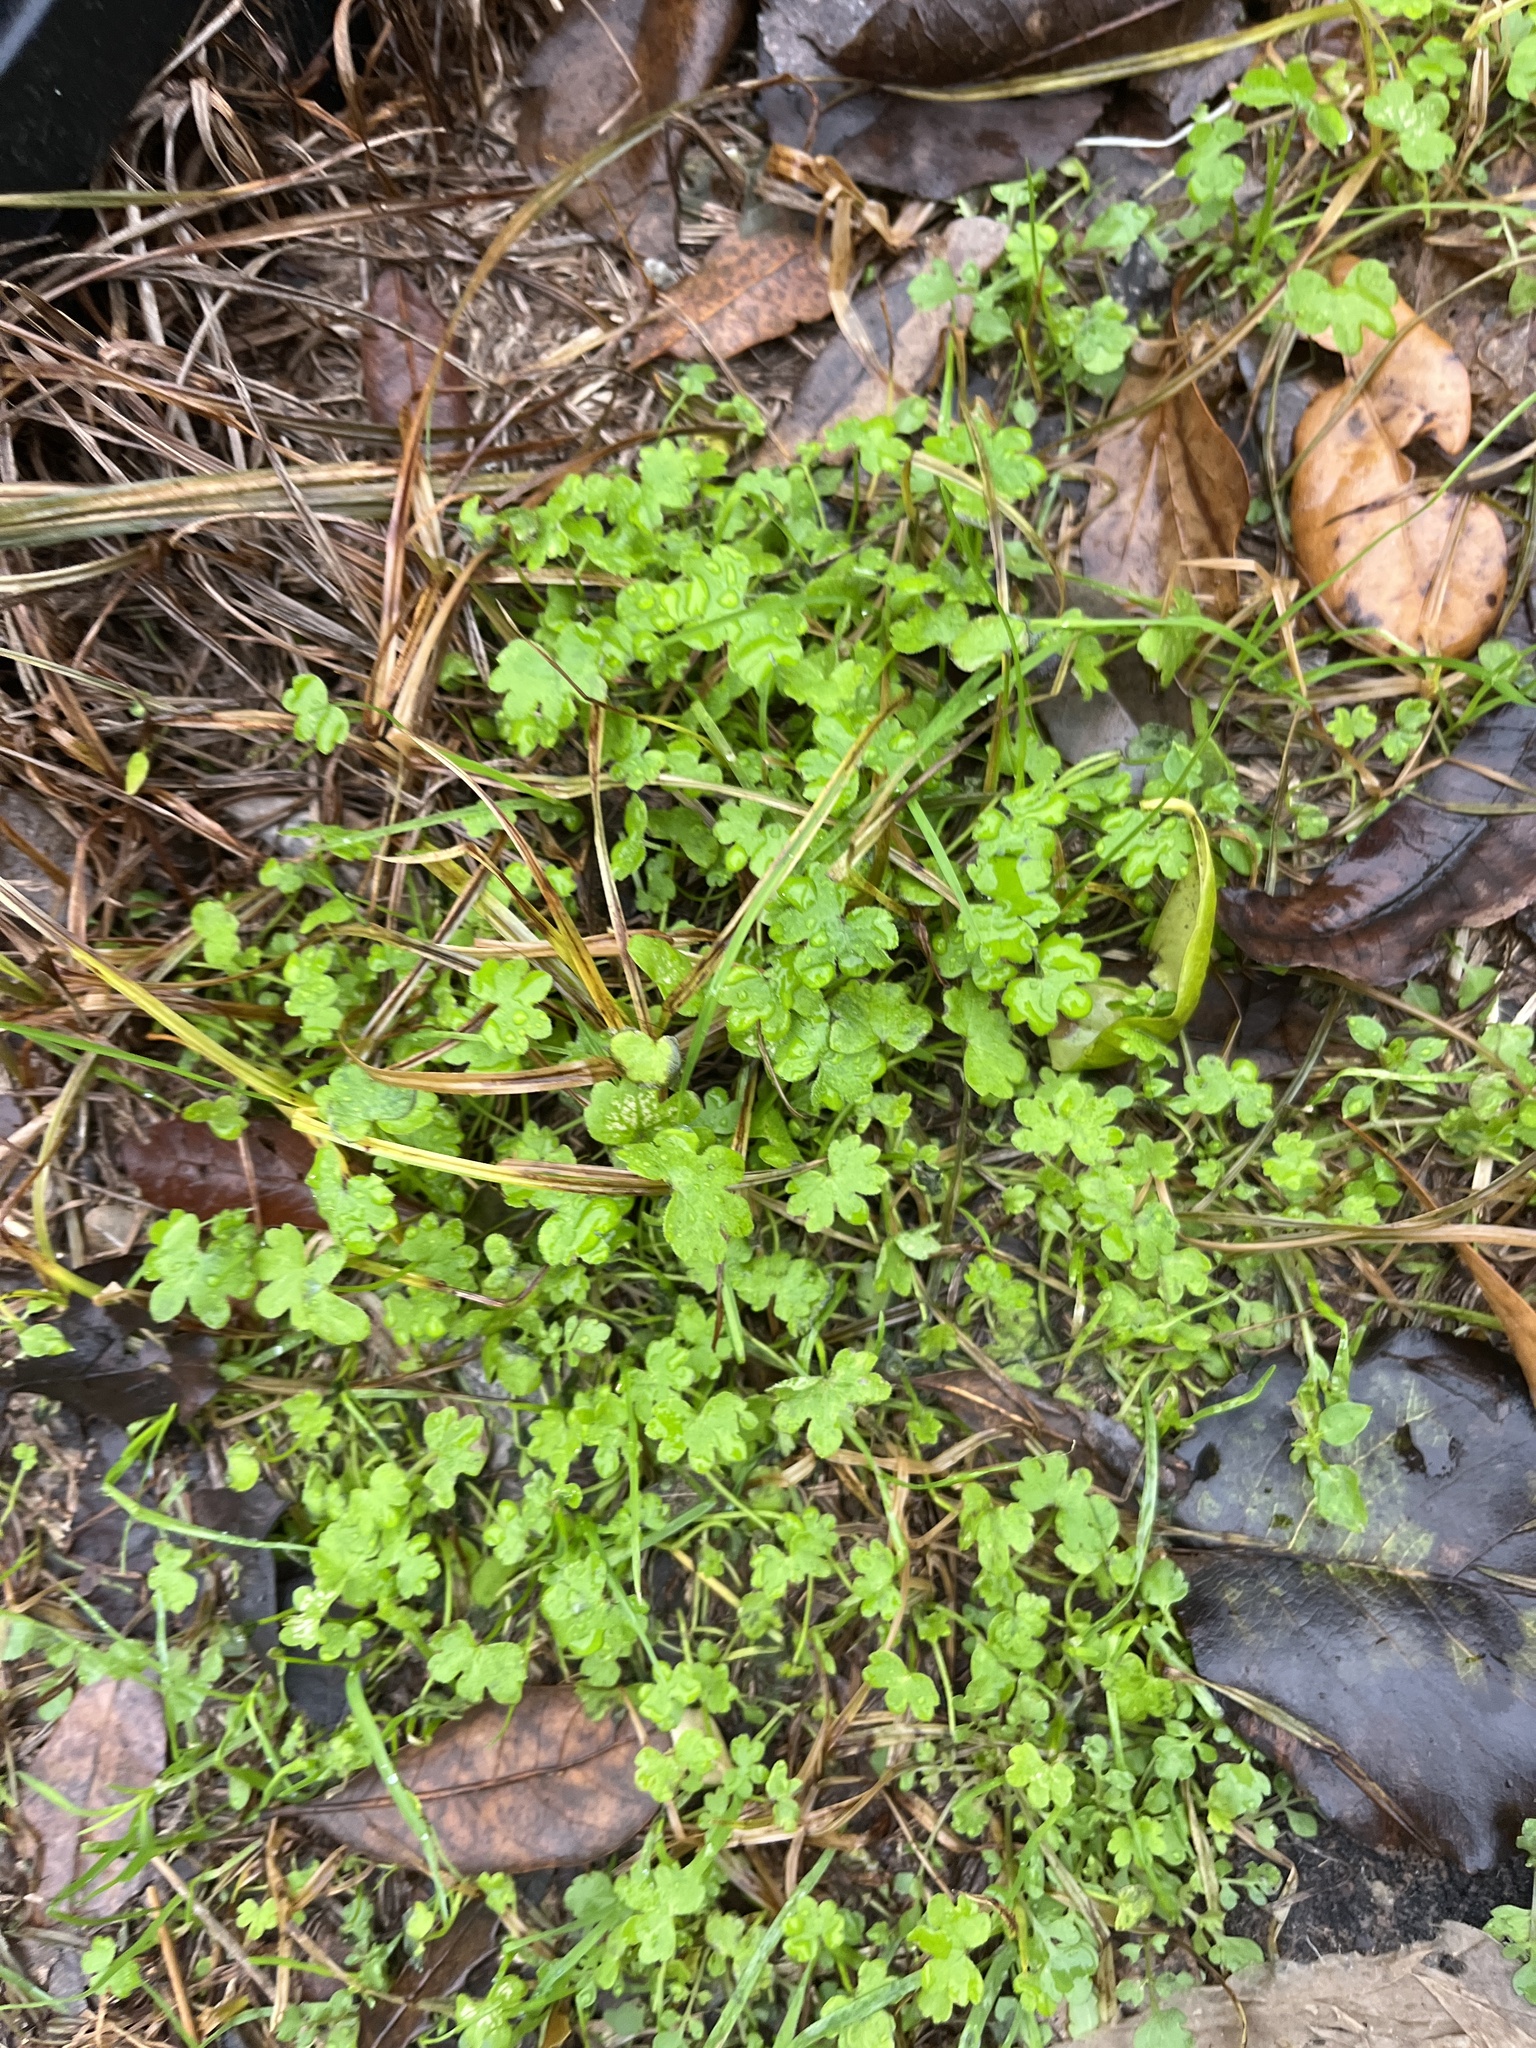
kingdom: Plantae
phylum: Tracheophyta
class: Magnoliopsida
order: Apiales
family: Apiaceae
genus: Bowlesia
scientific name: Bowlesia incana
